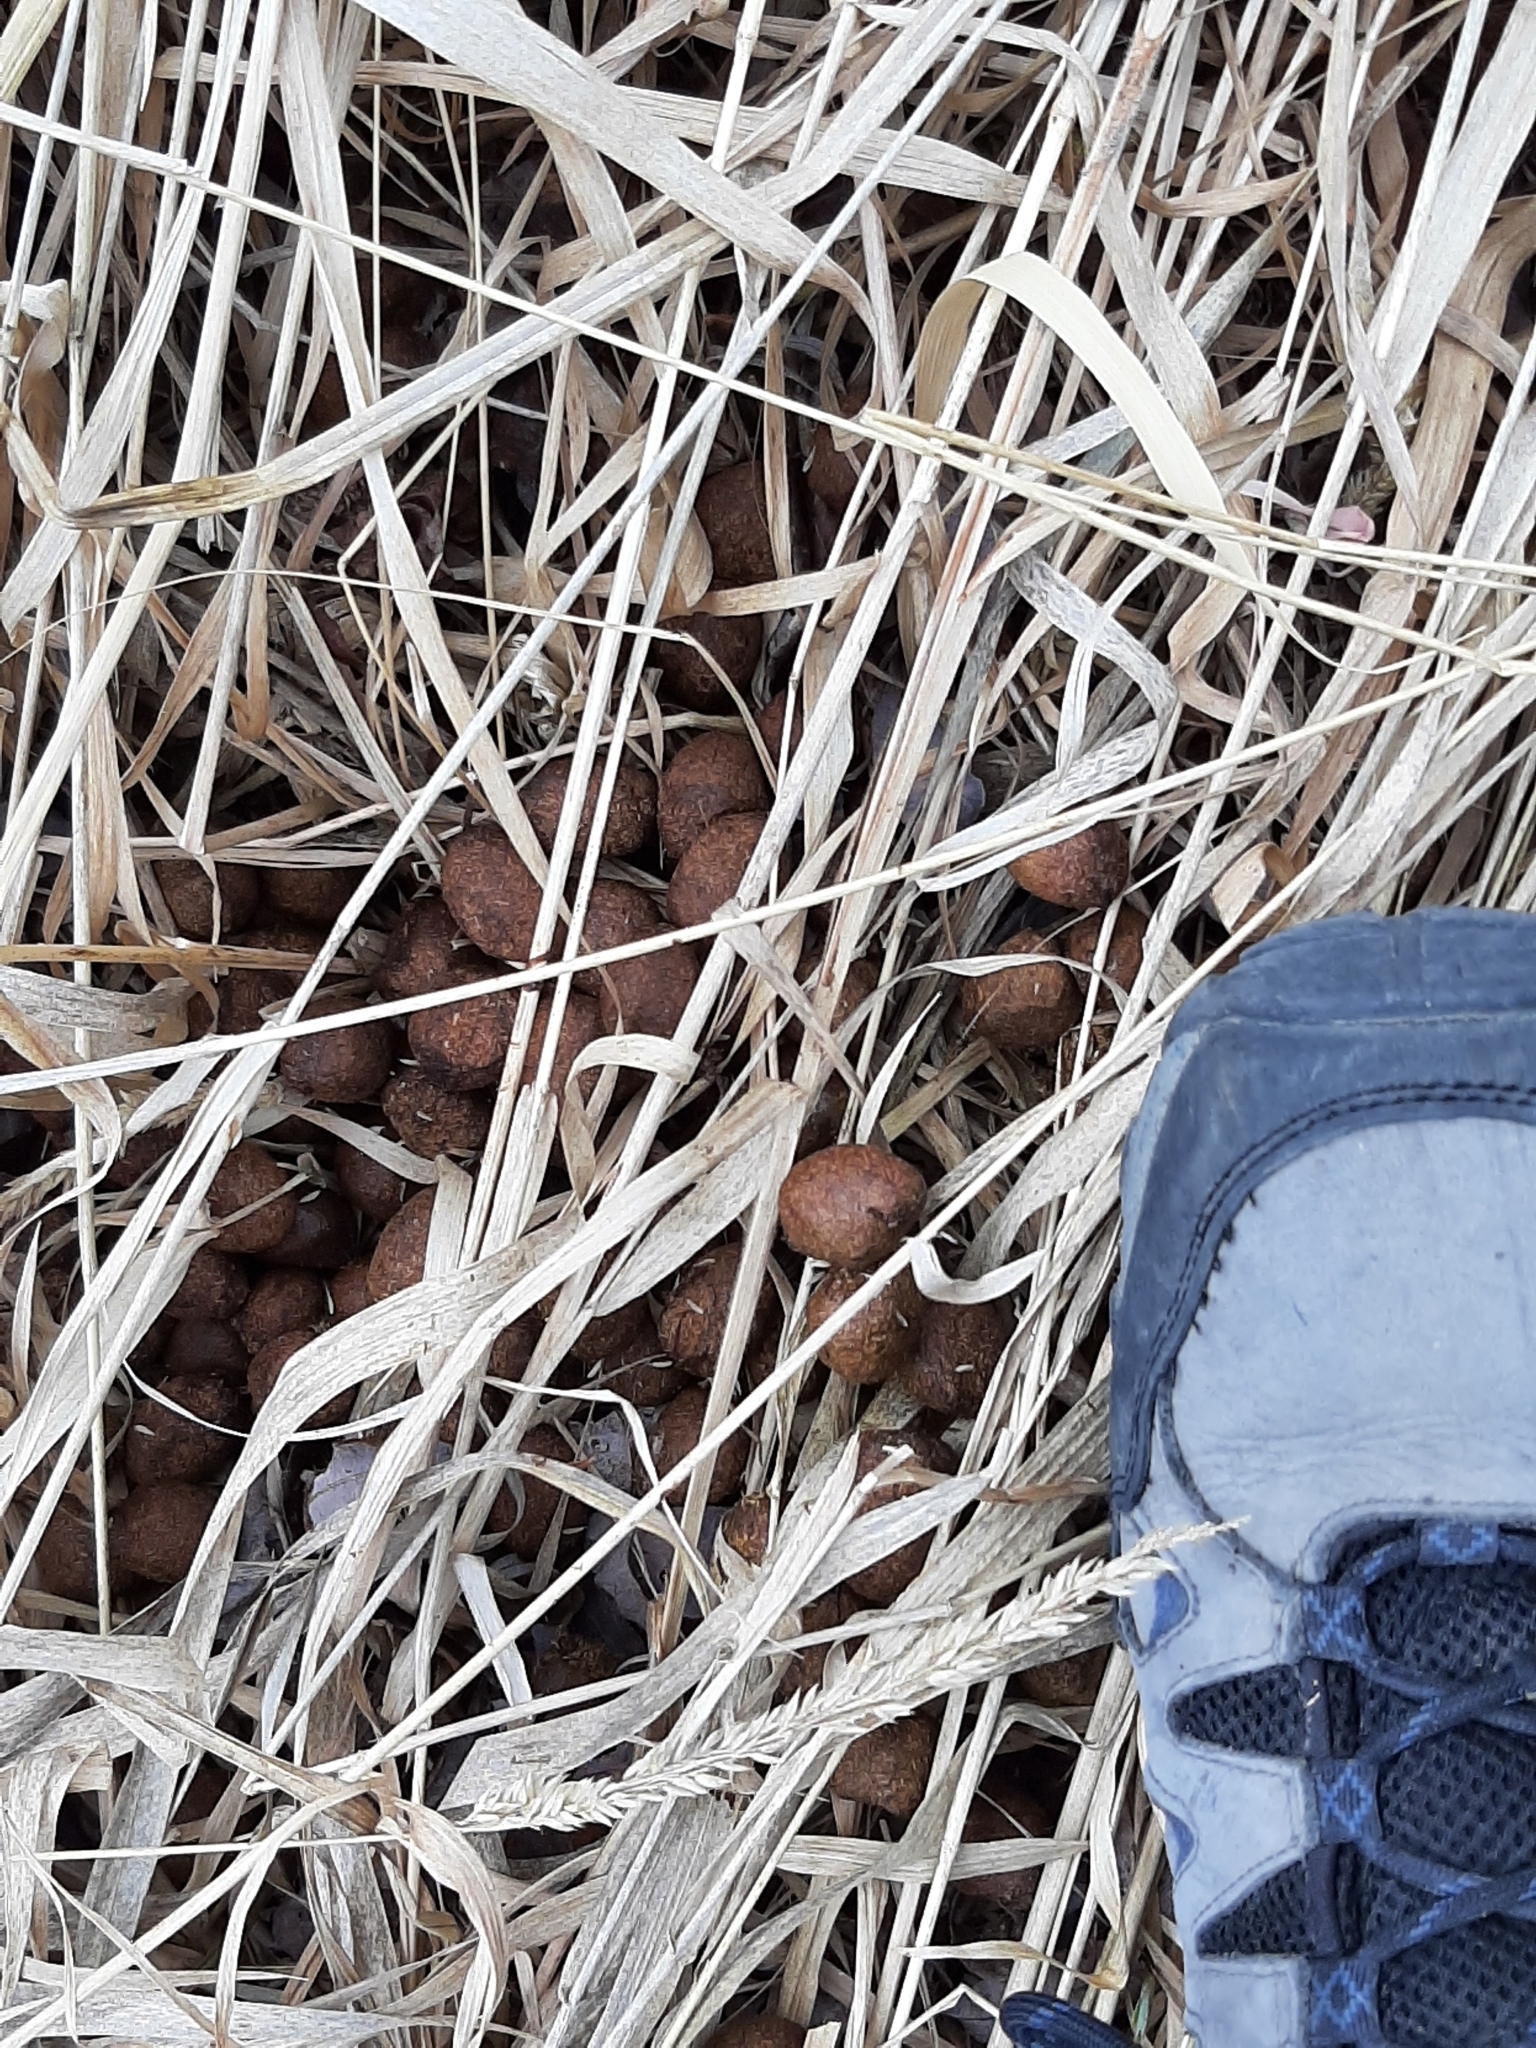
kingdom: Animalia
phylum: Chordata
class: Mammalia
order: Artiodactyla
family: Cervidae
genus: Alces
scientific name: Alces alces
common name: Moose
